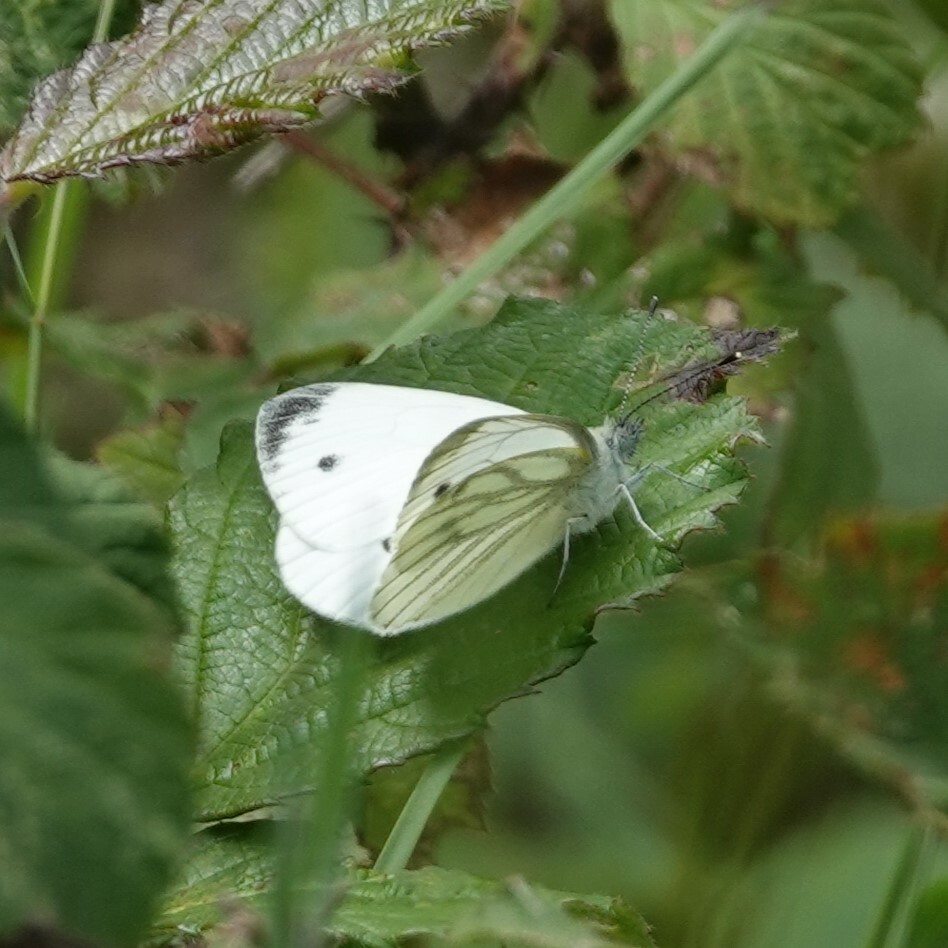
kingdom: Animalia
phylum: Arthropoda
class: Insecta
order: Lepidoptera
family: Pieridae
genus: Pieris
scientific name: Pieris napi
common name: Green-veined white
